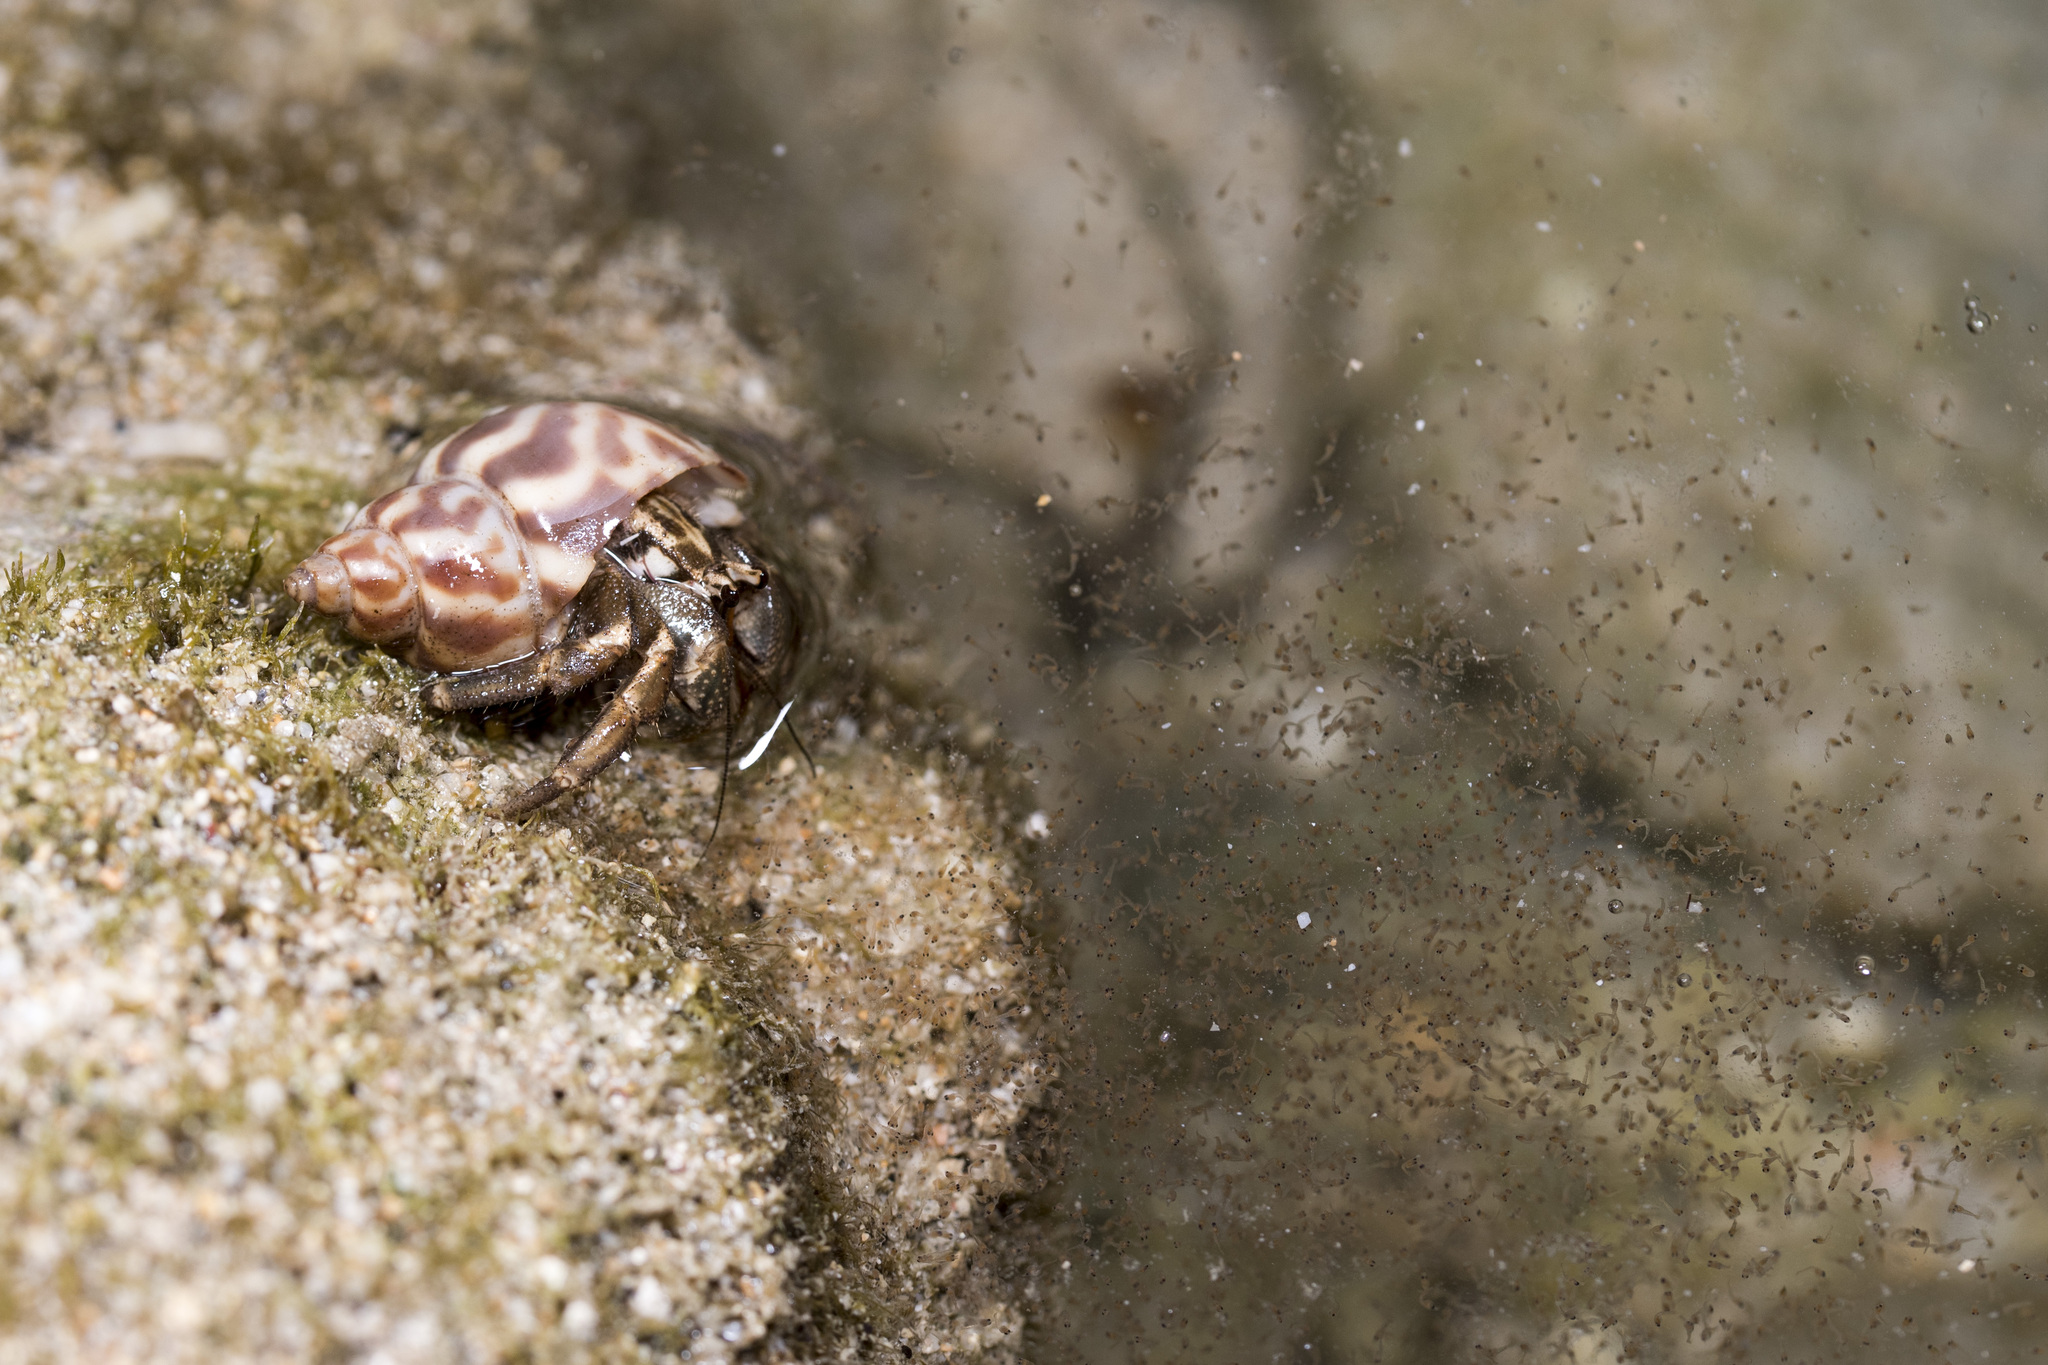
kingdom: Animalia
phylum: Arthropoda
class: Malacostraca
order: Decapoda
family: Coenobitidae
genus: Coenobita
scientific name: Coenobita rugosus
